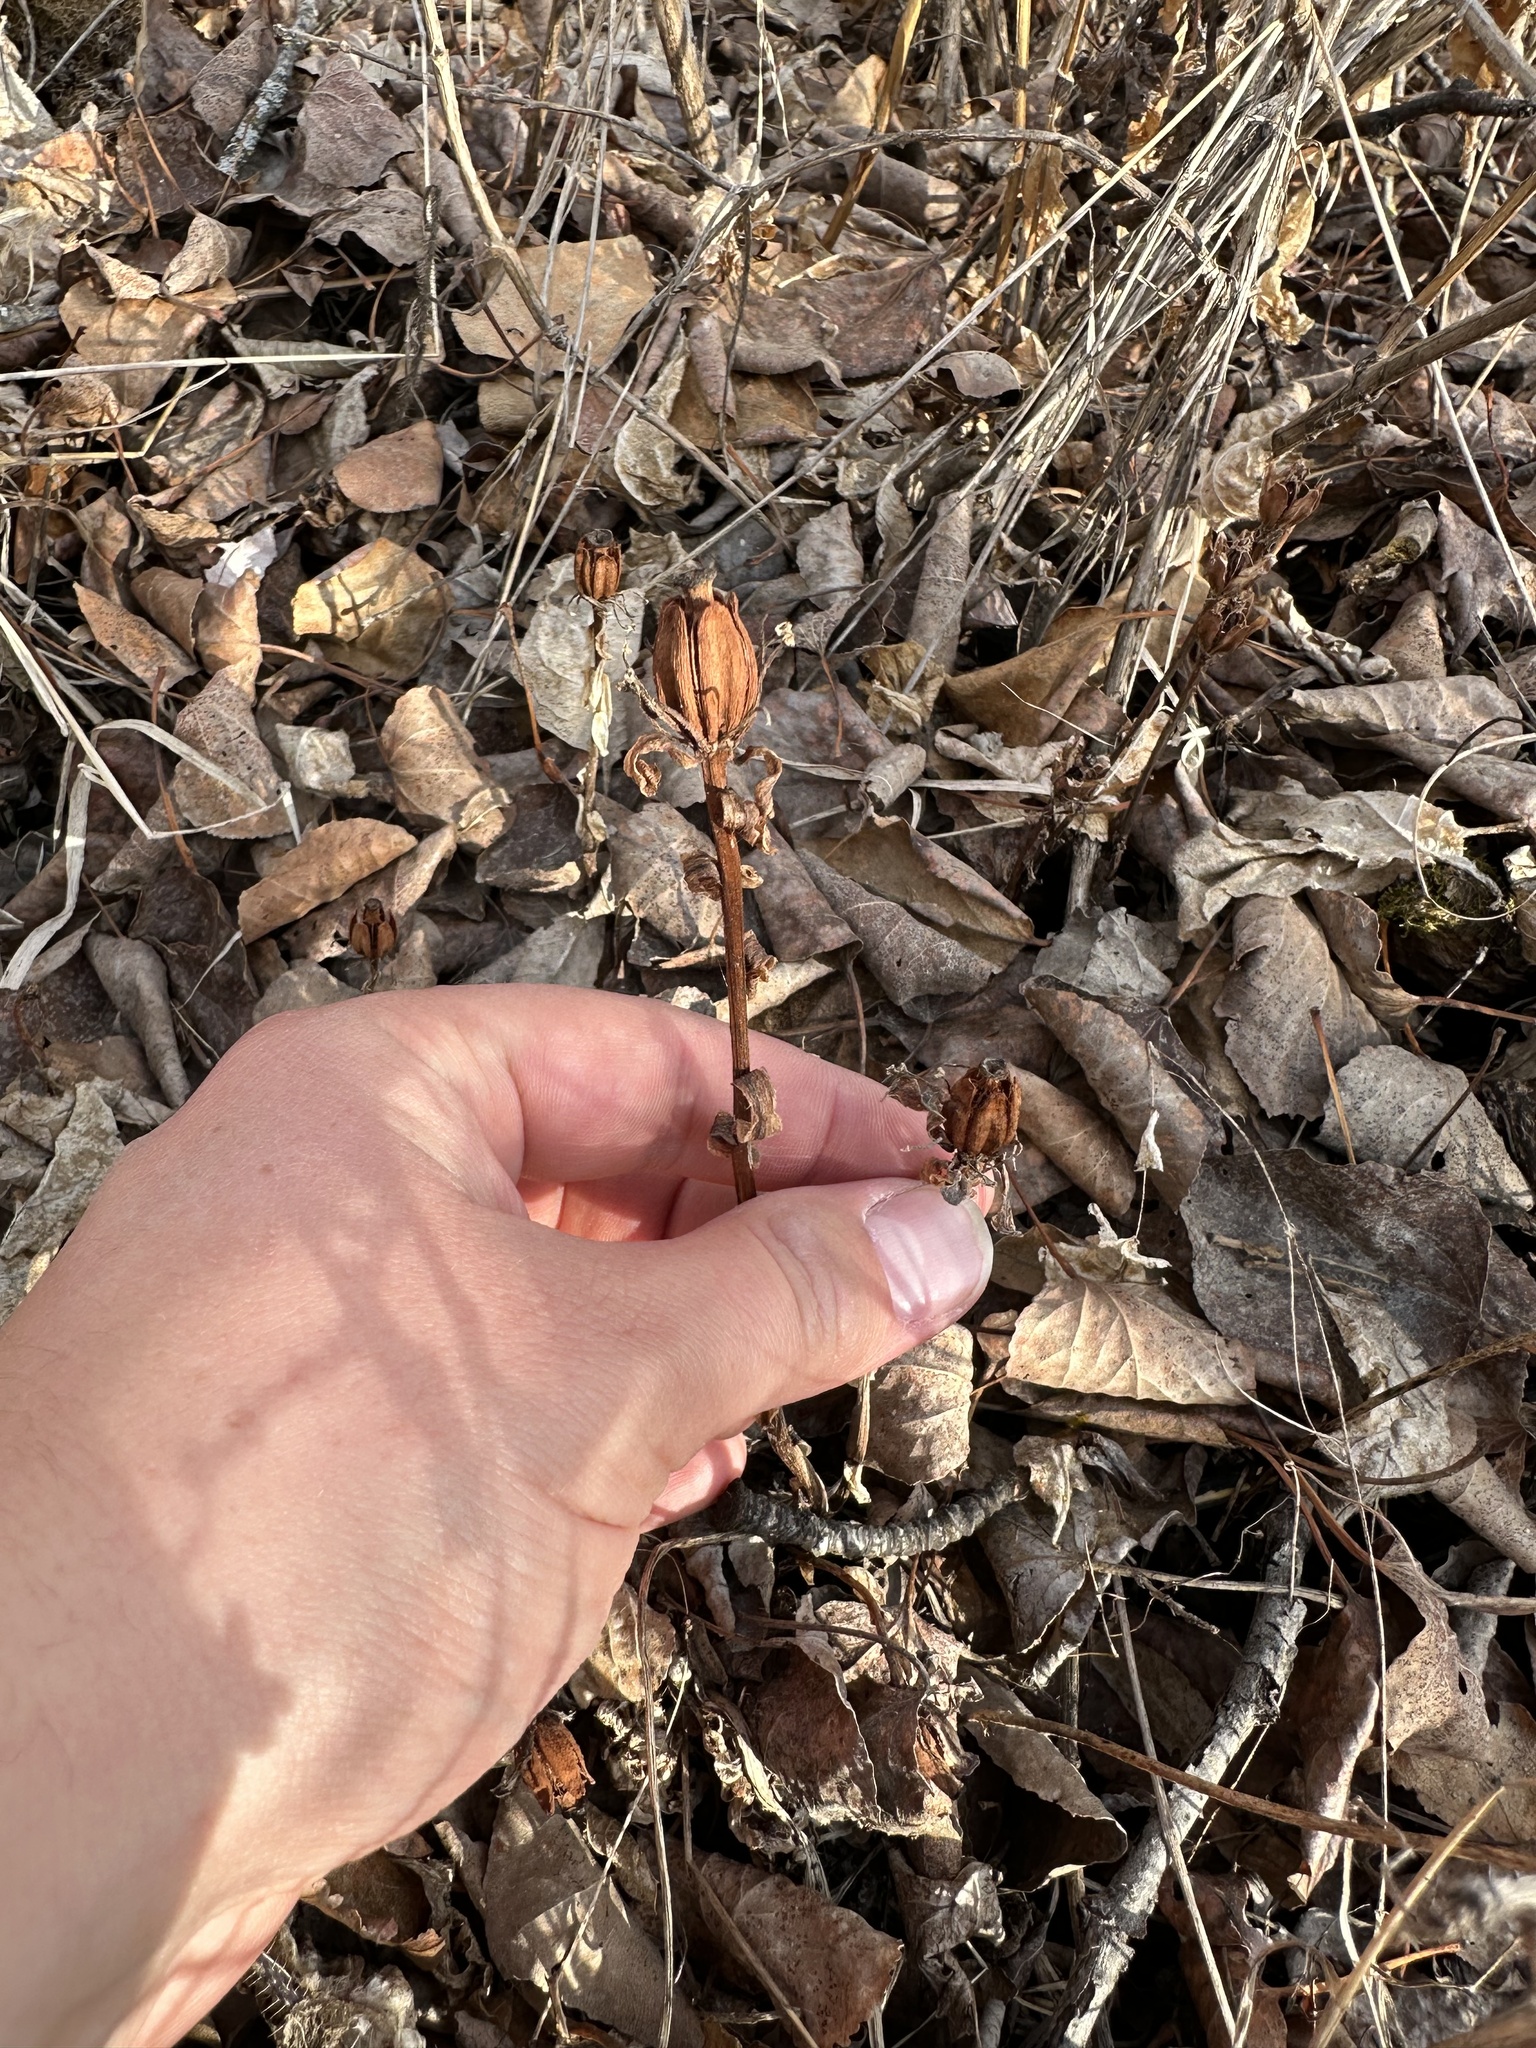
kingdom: Plantae
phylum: Tracheophyta
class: Magnoliopsida
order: Ericales
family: Ericaceae
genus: Monotropa
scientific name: Monotropa uniflora
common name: Convulsion root
